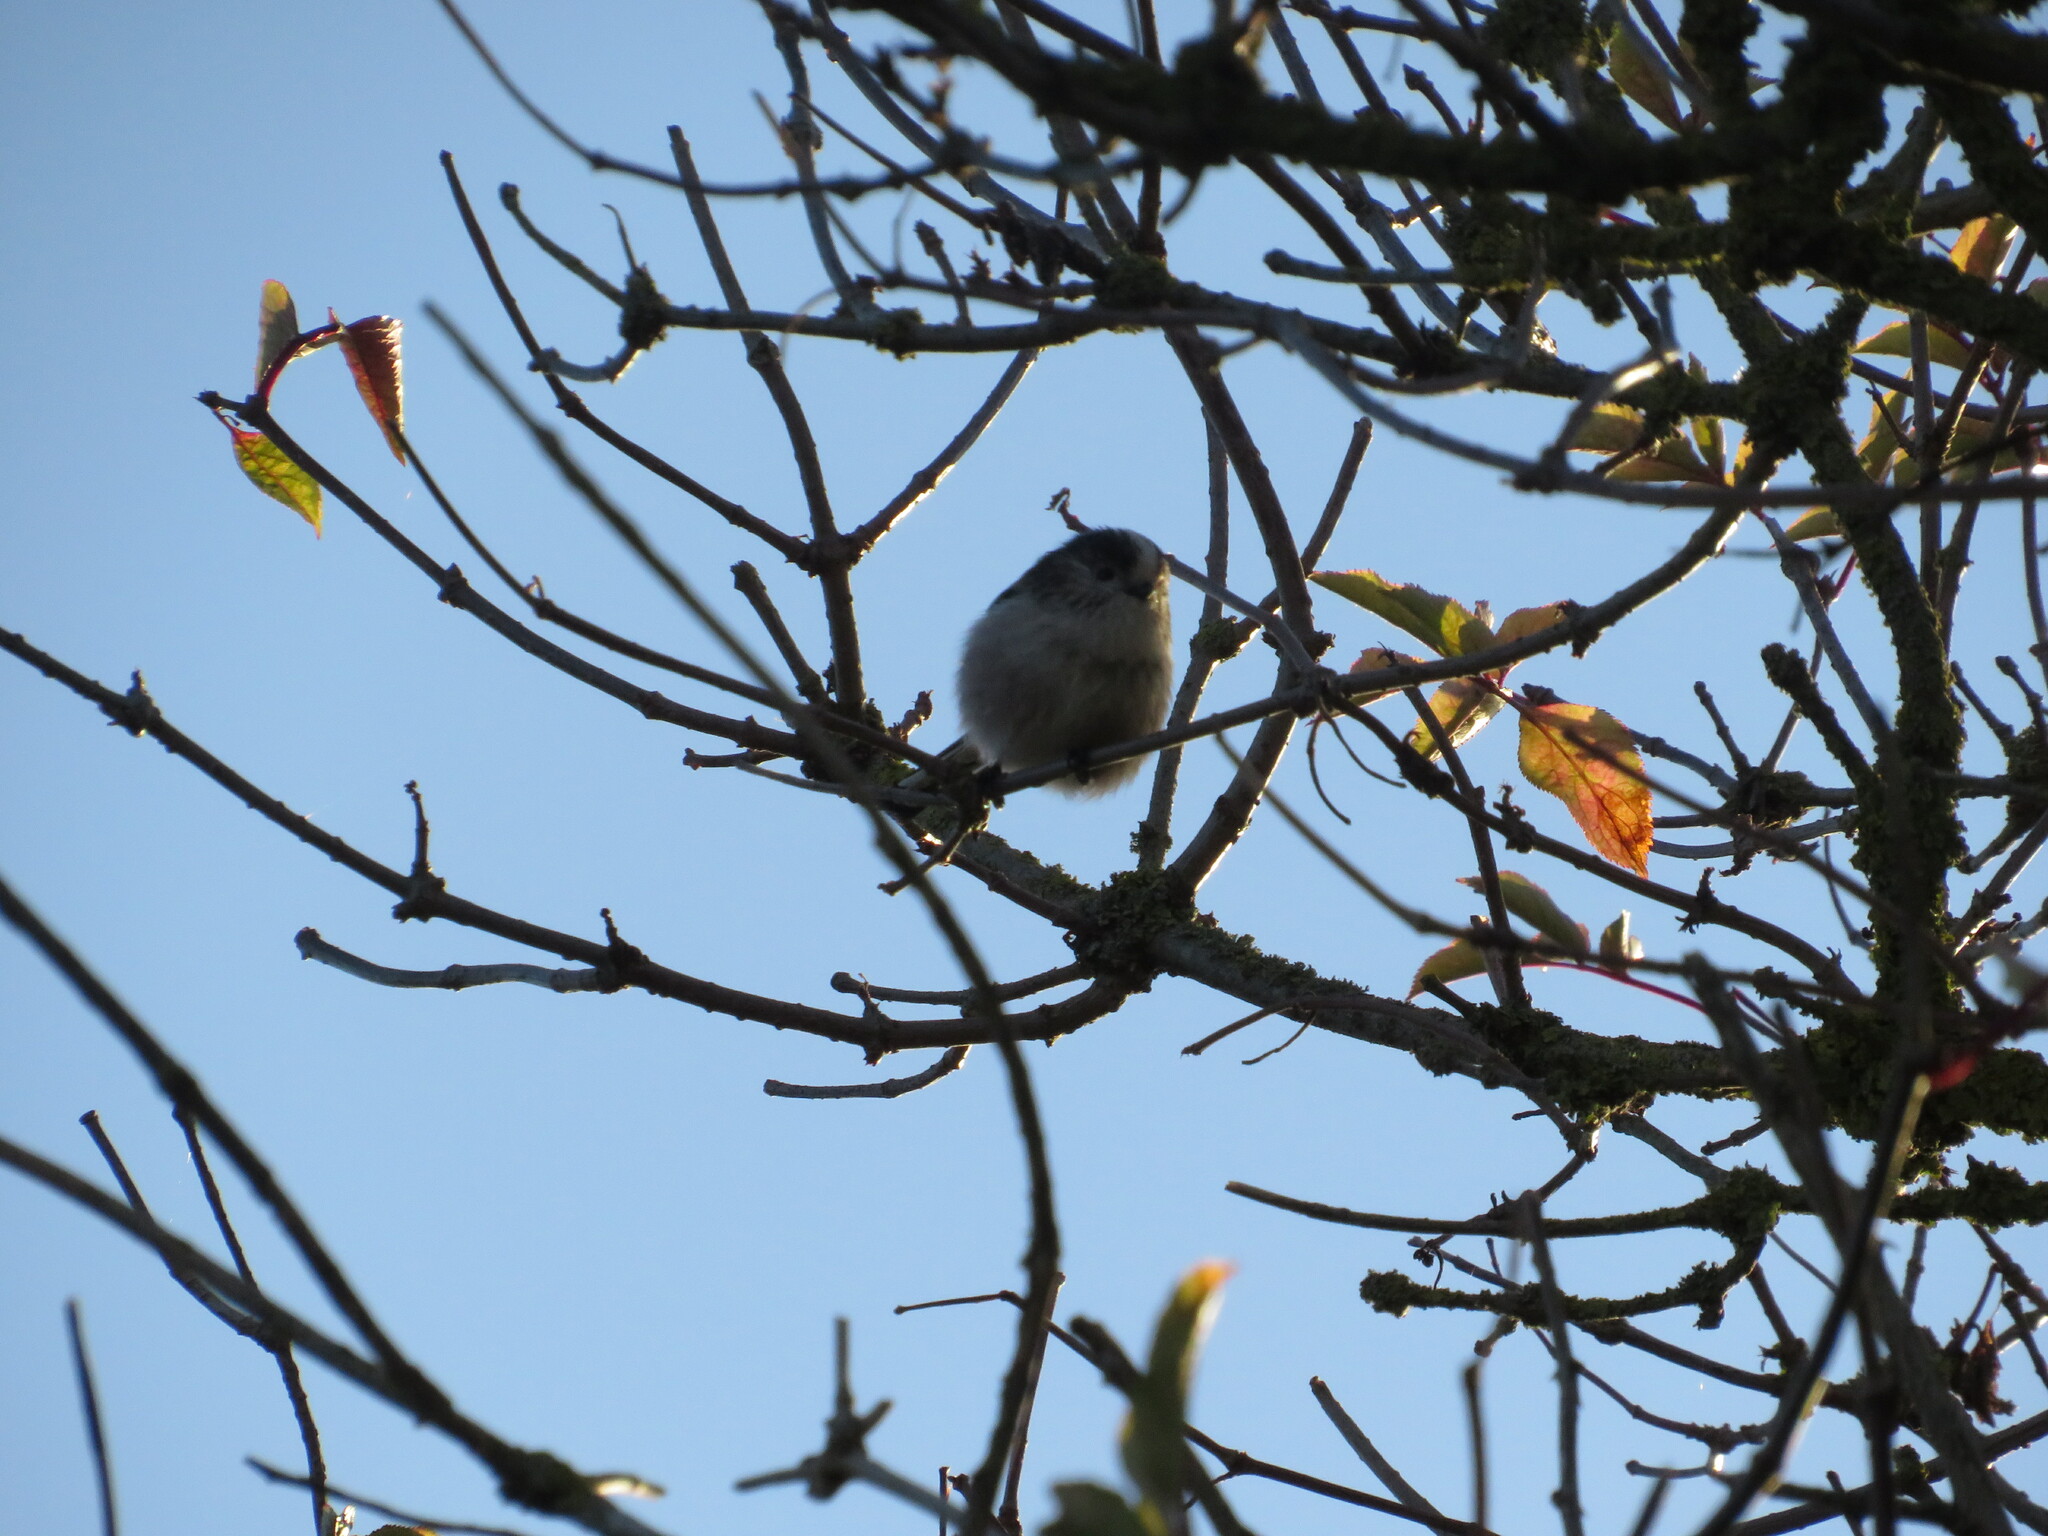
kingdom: Animalia
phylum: Chordata
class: Aves
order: Passeriformes
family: Aegithalidae
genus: Aegithalos
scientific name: Aegithalos caudatus
